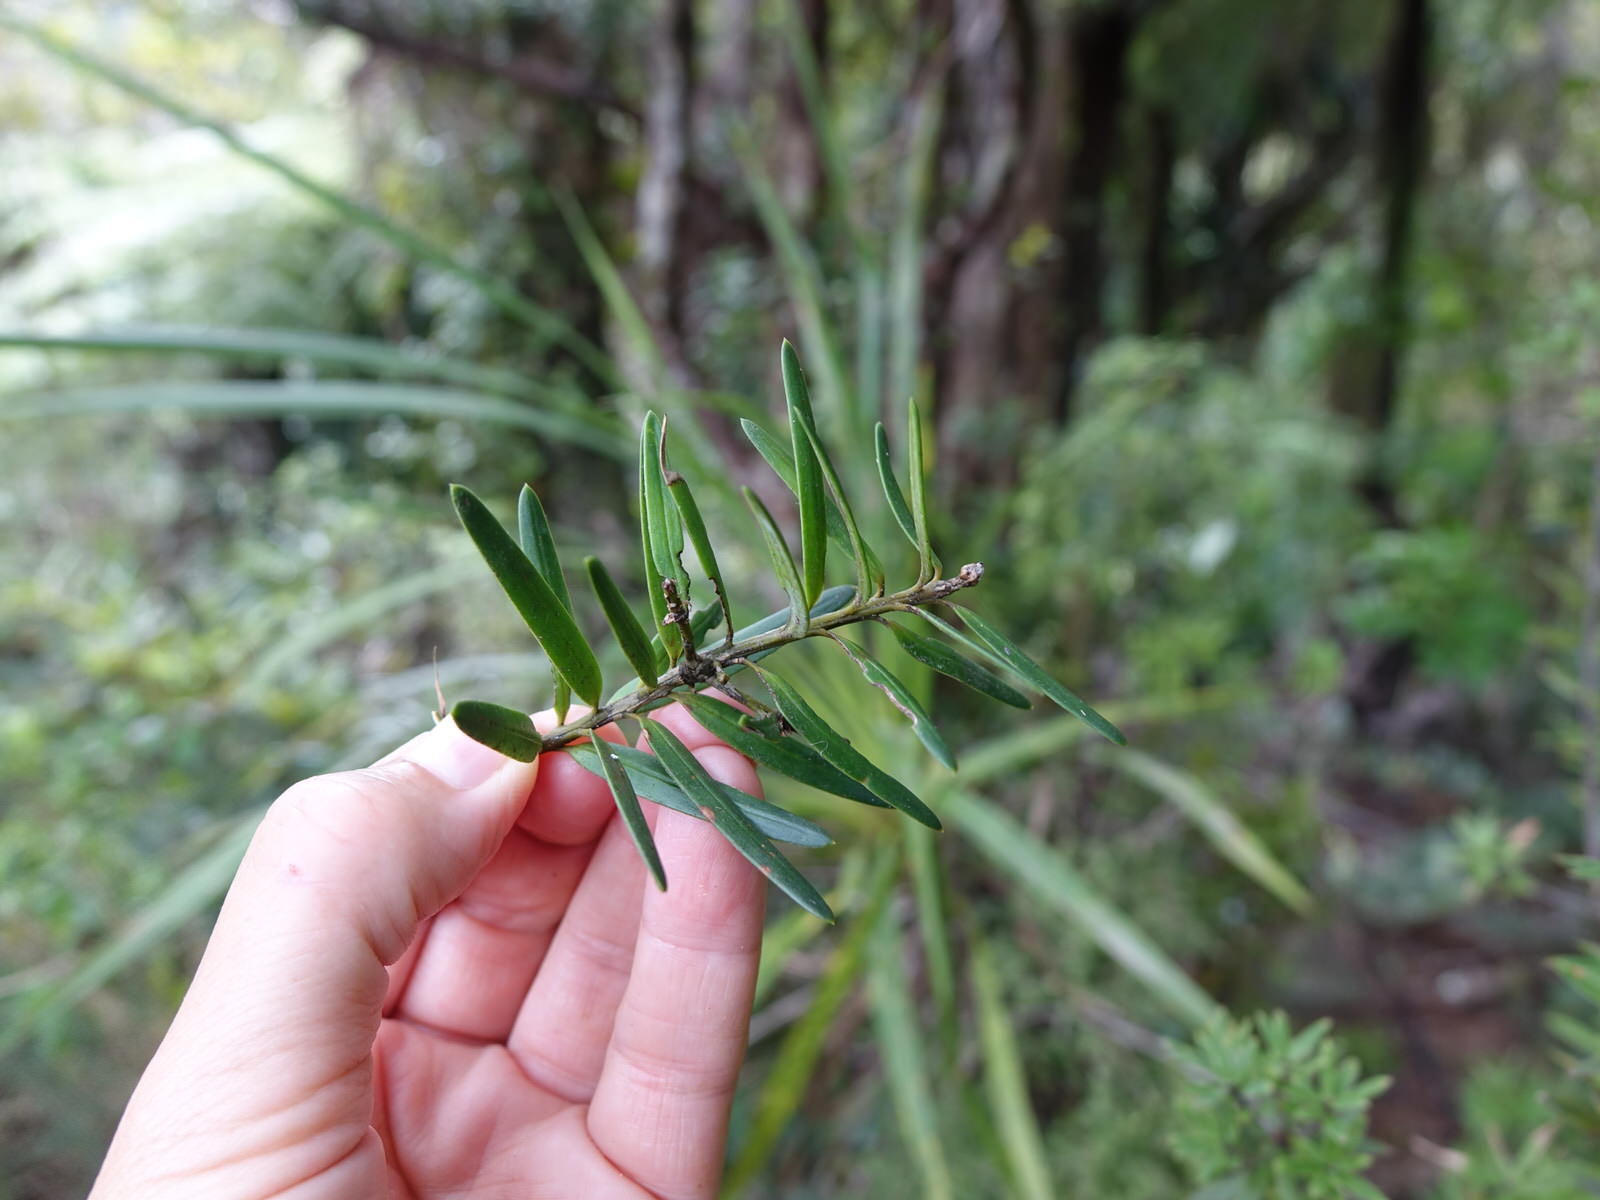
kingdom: Plantae
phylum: Tracheophyta
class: Pinopsida
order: Pinales
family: Podocarpaceae
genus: Podocarpus
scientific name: Podocarpus totara
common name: Totara
